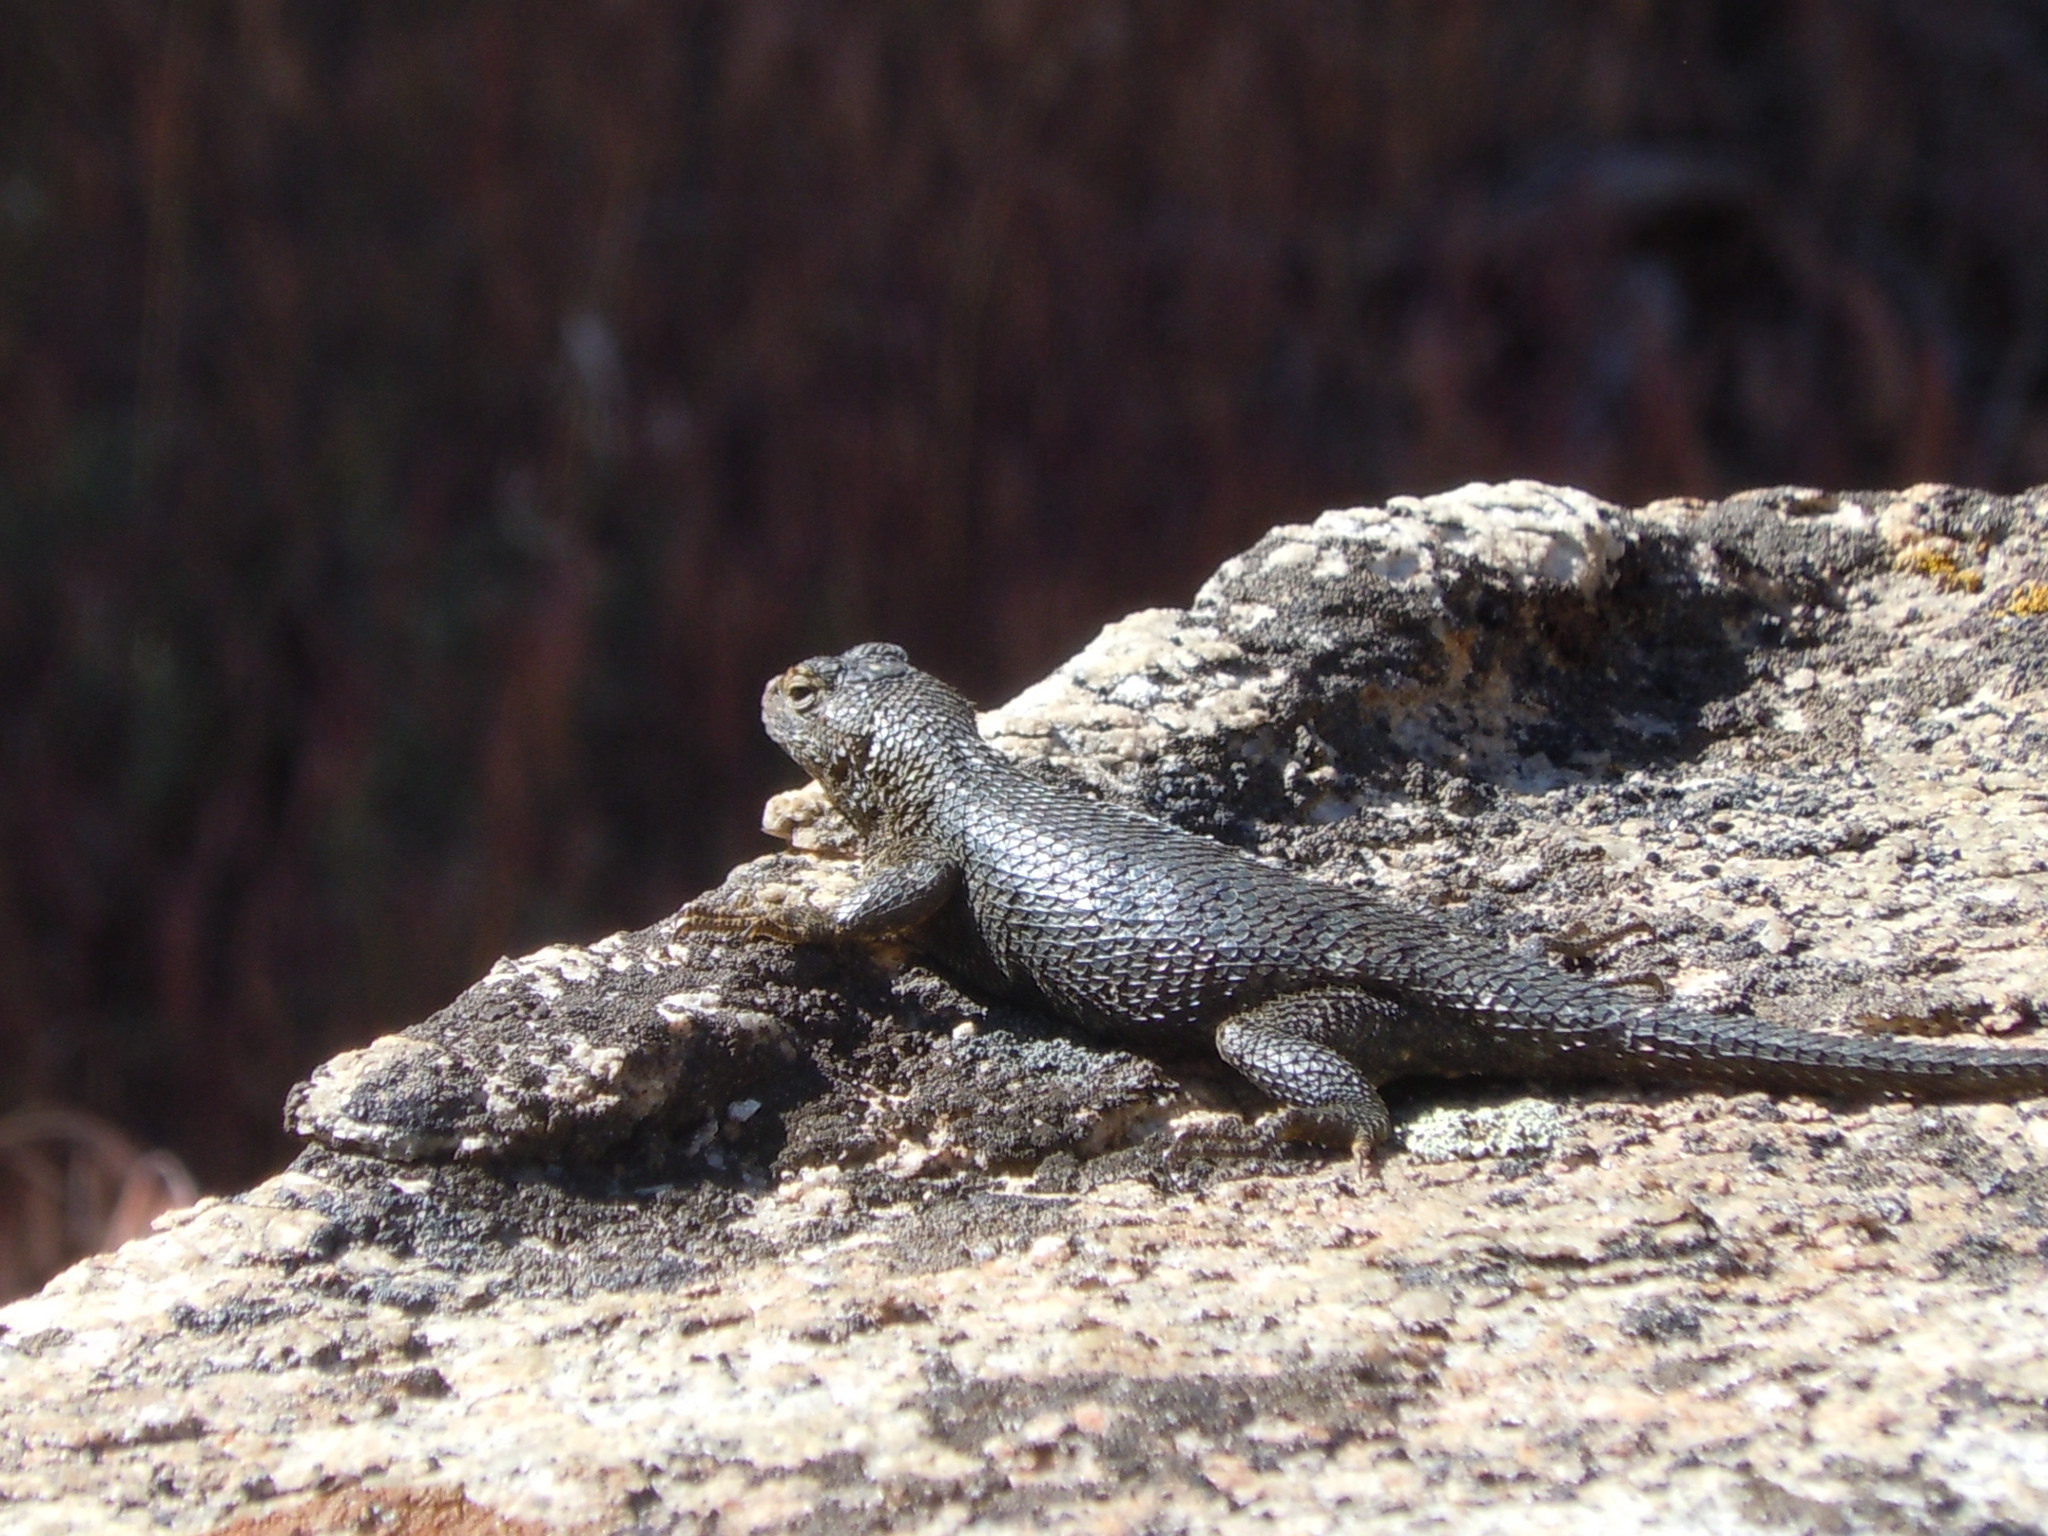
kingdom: Animalia
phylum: Chordata
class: Squamata
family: Phrynosomatidae
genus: Sceloporus
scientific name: Sceloporus occidentalis
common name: Western fence lizard
